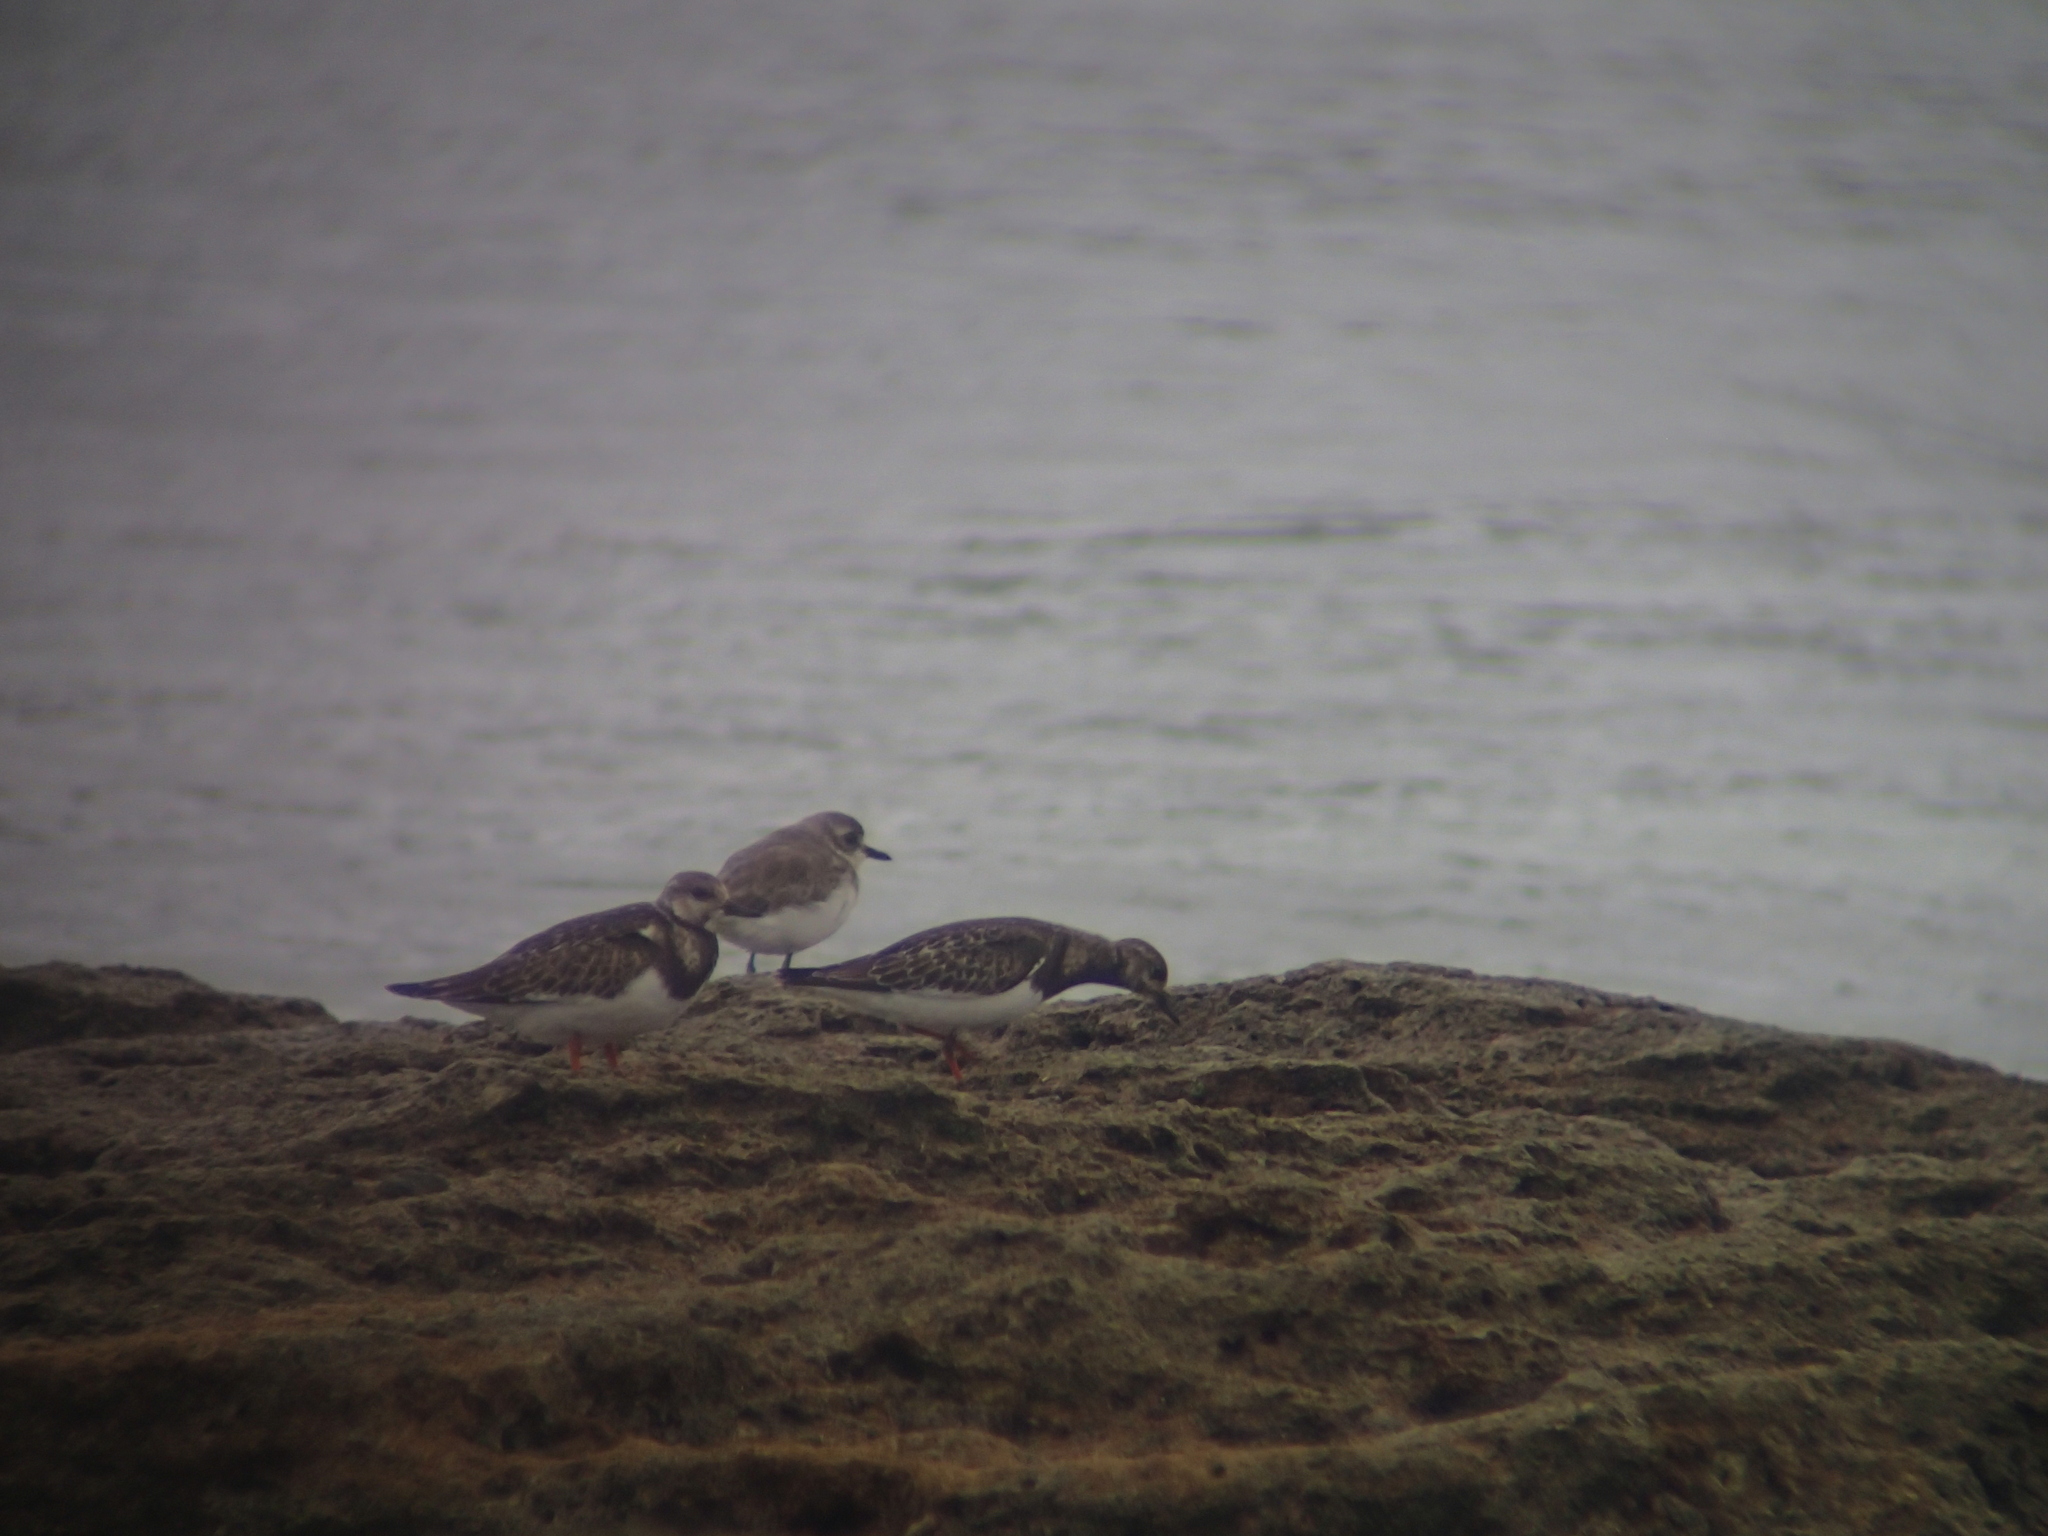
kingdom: Animalia
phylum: Chordata
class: Aves
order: Charadriiformes
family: Scolopacidae
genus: Arenaria
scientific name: Arenaria interpres
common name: Ruddy turnstone
